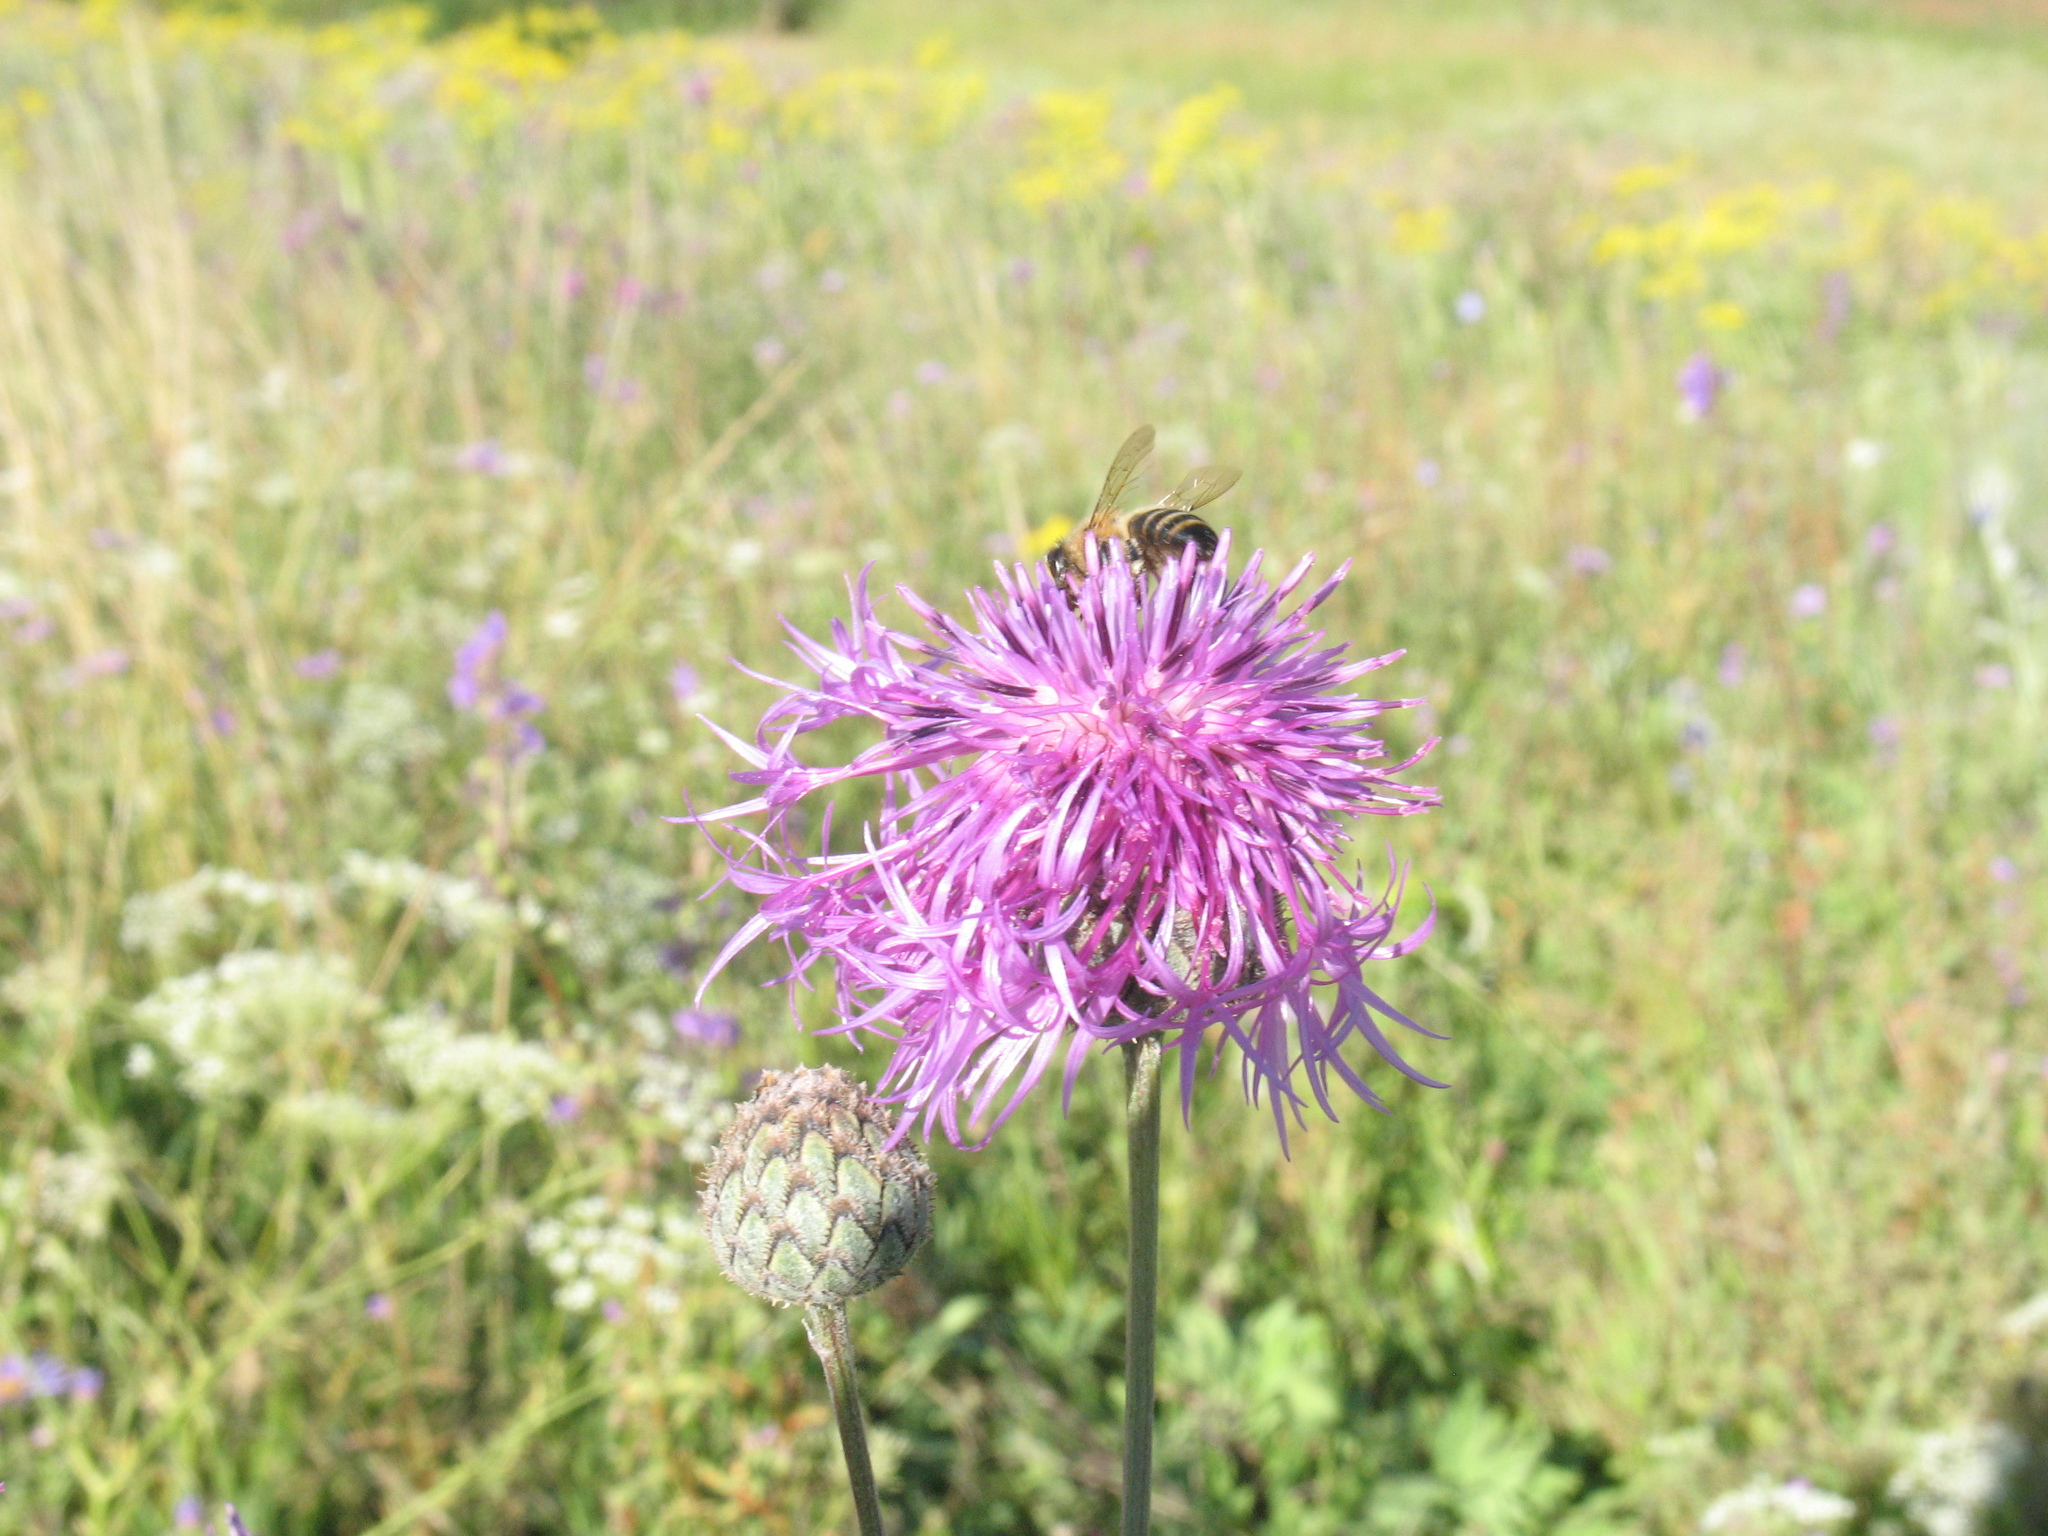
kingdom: Plantae
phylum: Tracheophyta
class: Magnoliopsida
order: Asterales
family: Asteraceae
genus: Centaurea
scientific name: Centaurea scabiosa
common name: Greater knapweed
